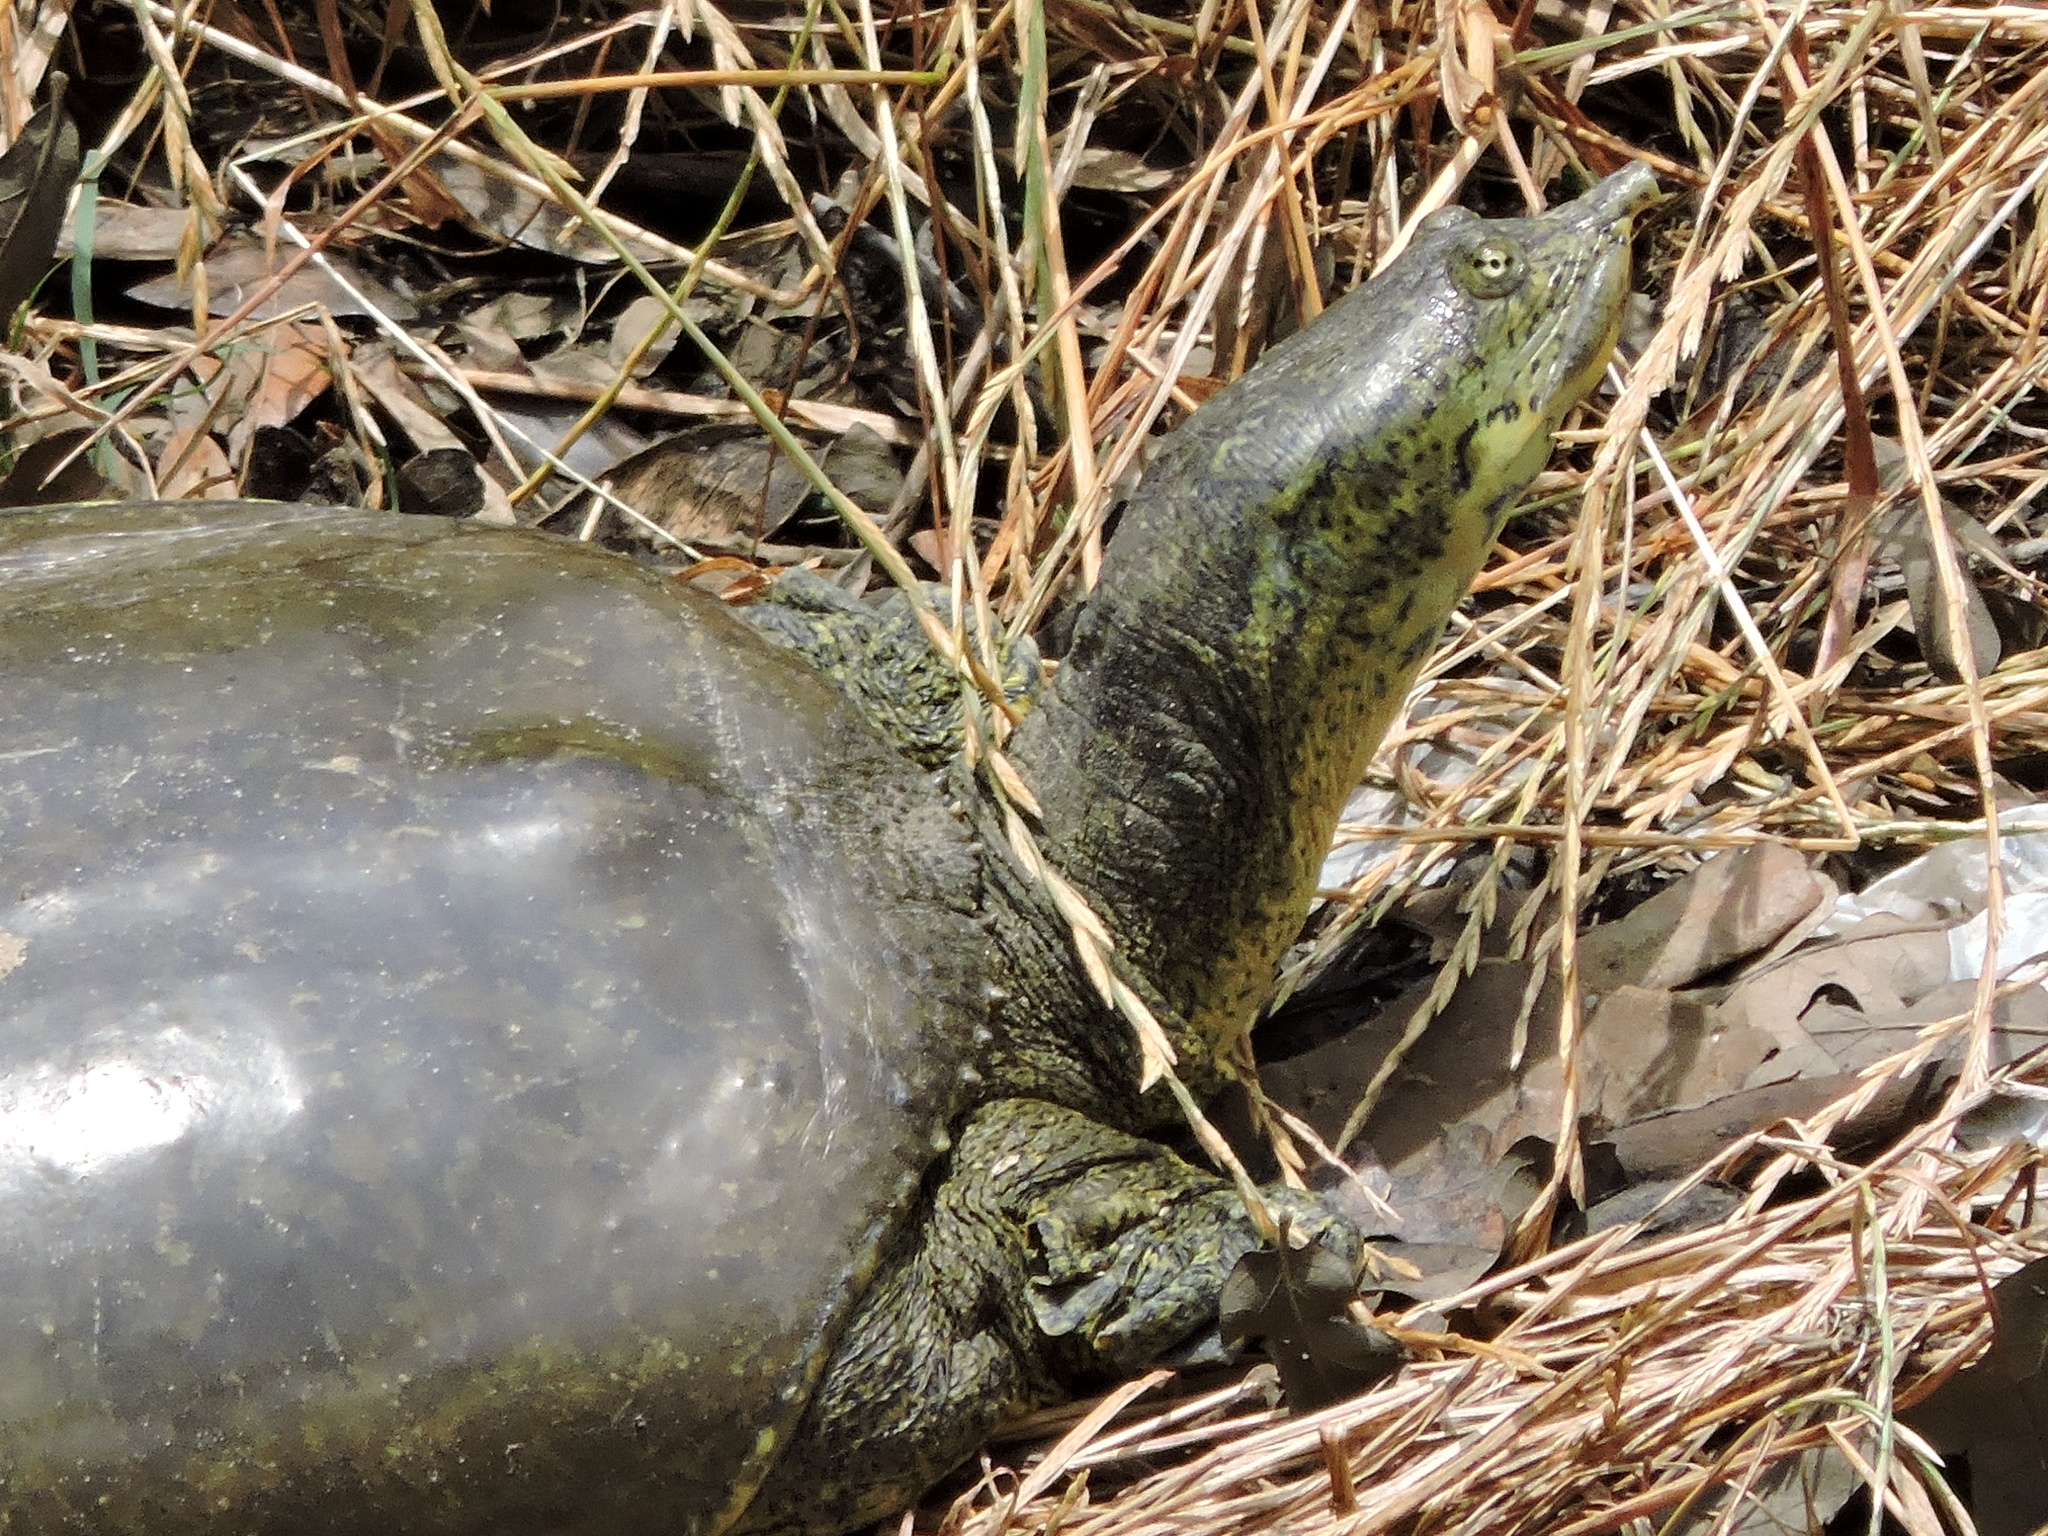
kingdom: Animalia
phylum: Chordata
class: Testudines
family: Trionychidae
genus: Apalone
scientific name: Apalone spinifera
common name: Spiny softshell turtle
